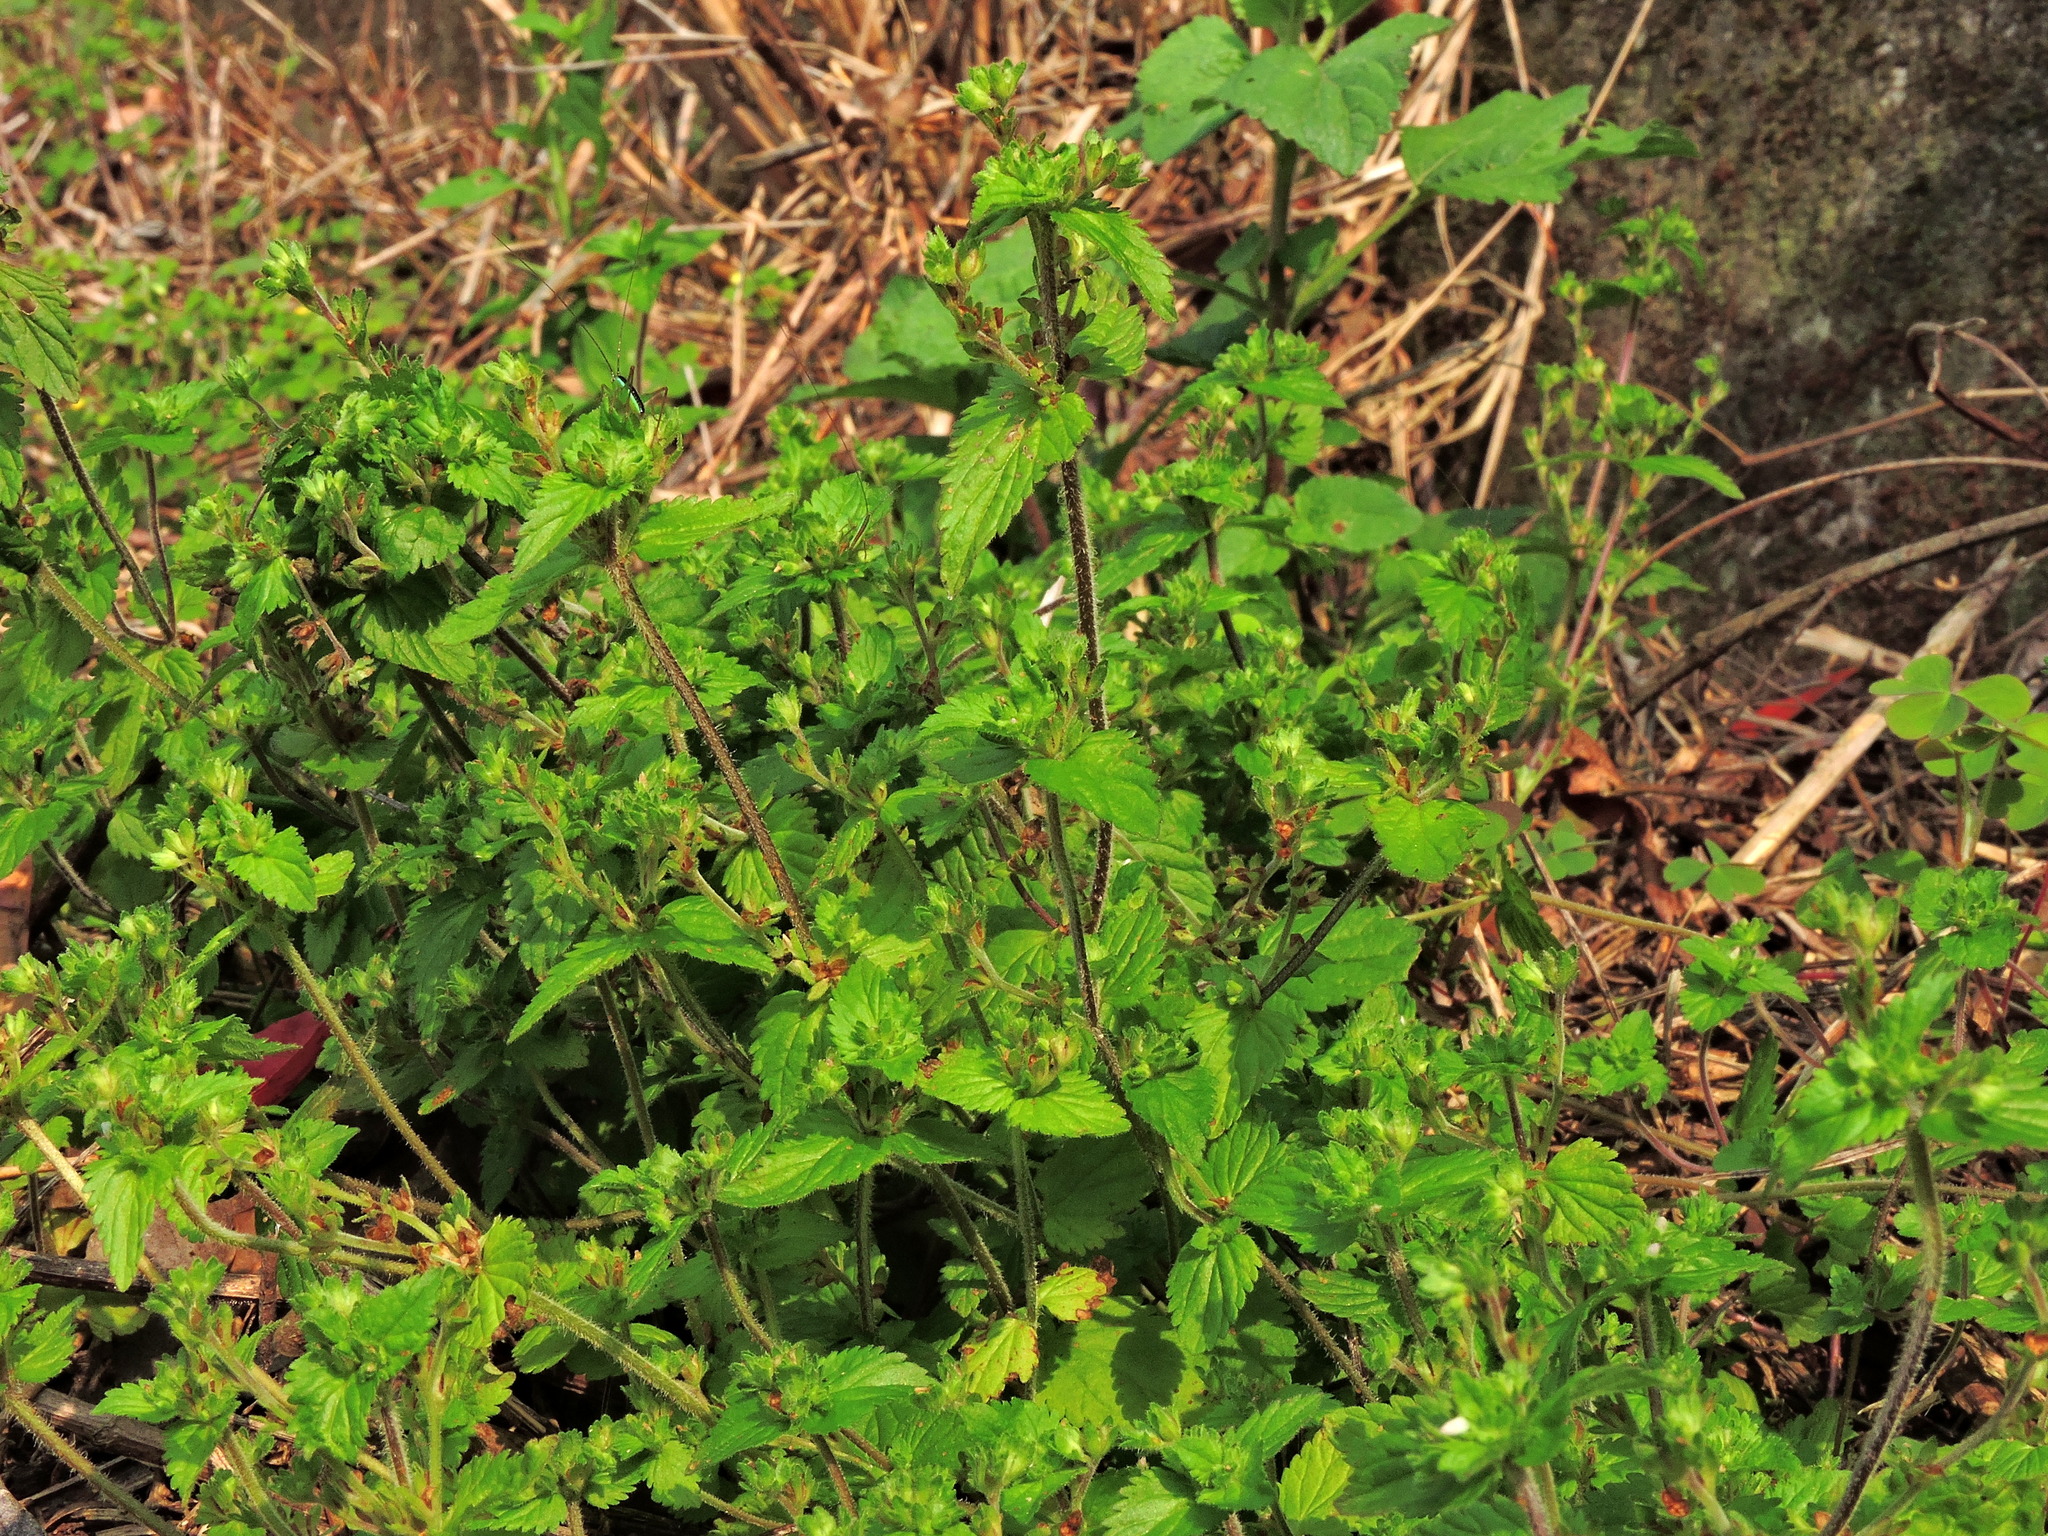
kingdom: Plantae
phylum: Tracheophyta
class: Magnoliopsida
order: Lamiales
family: Plantaginaceae
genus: Veronica
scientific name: Veronica javanica
